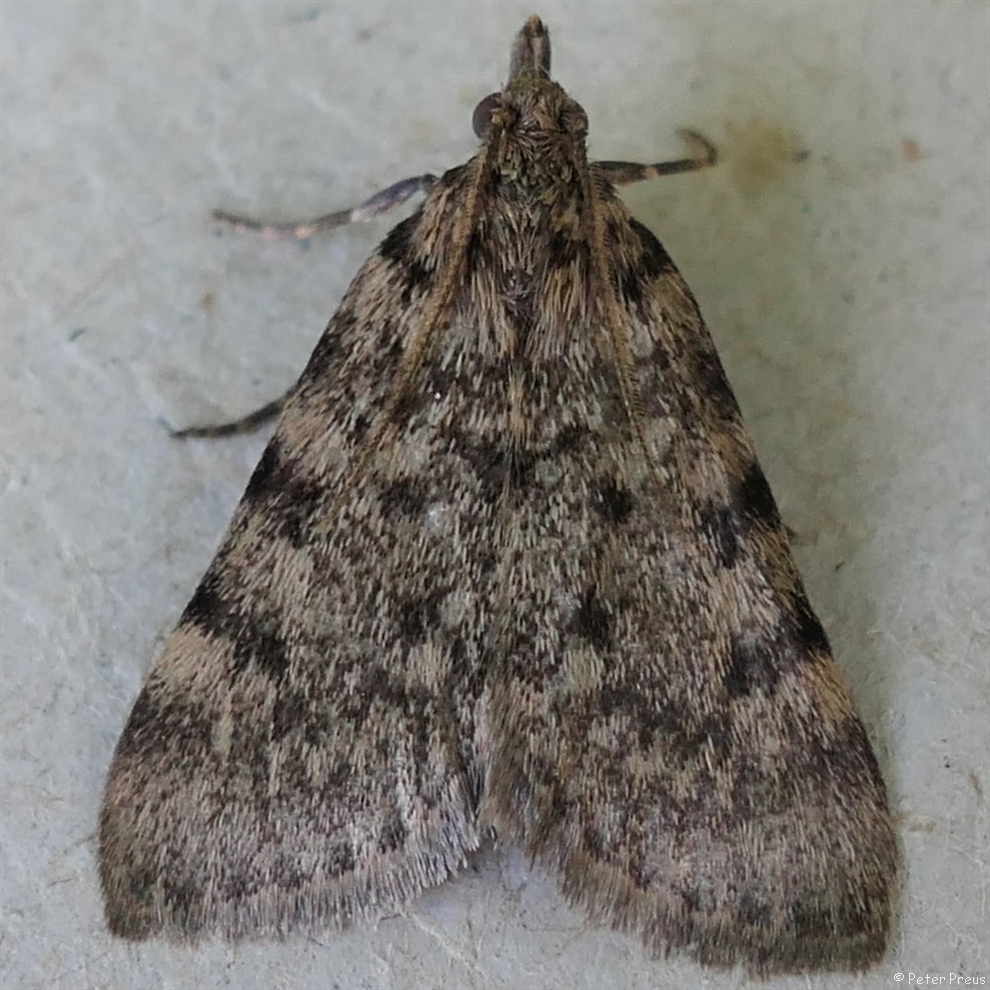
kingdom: Animalia
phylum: Arthropoda
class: Insecta
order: Lepidoptera
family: Pyralidae
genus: Aglossa
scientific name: Aglossa pinguinalis
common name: Large tabby
